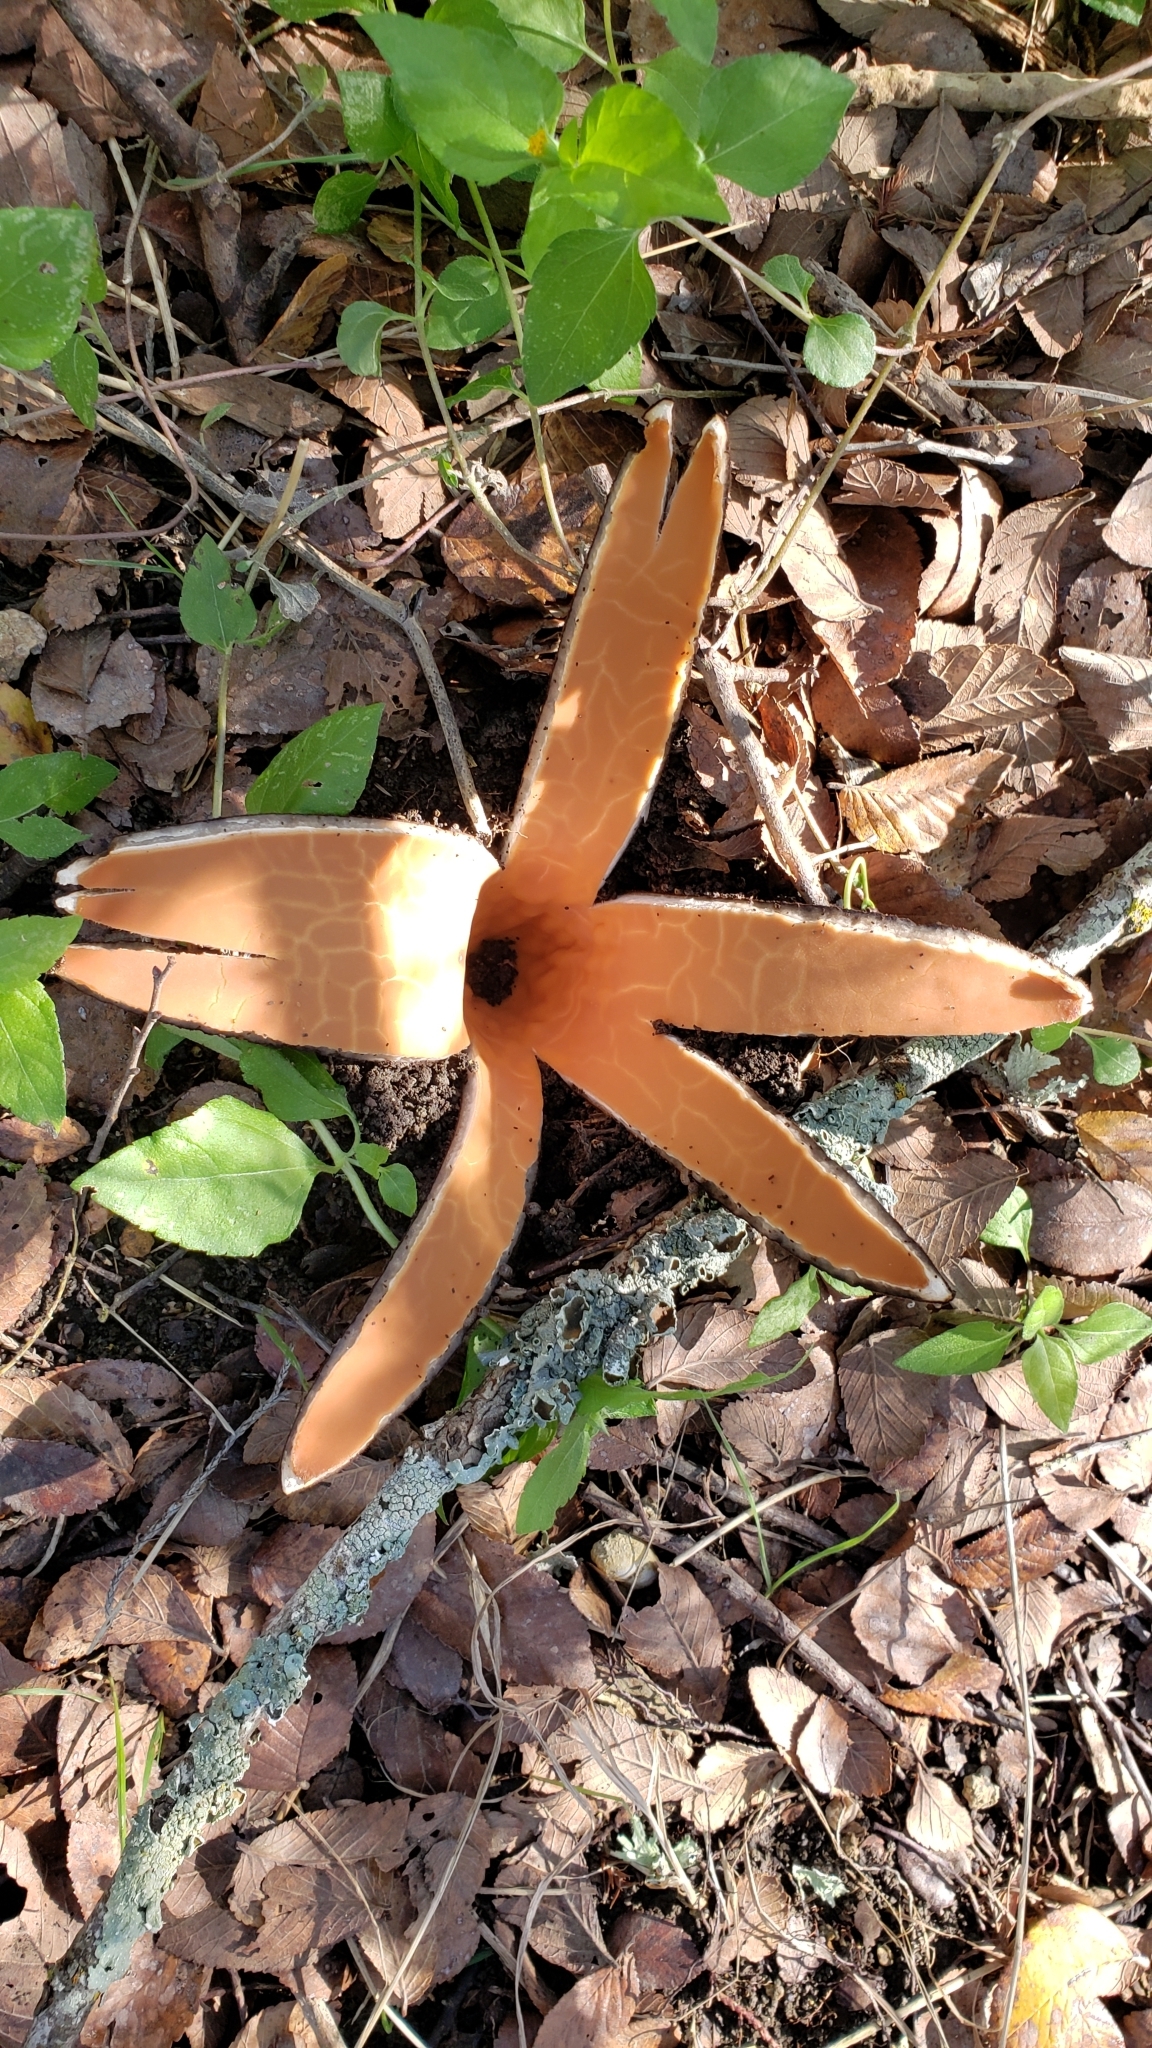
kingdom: Fungi
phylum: Ascomycota
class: Pezizomycetes
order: Pezizales
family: Chorioactidaceae
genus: Chorioactis
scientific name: Chorioactis geaster
